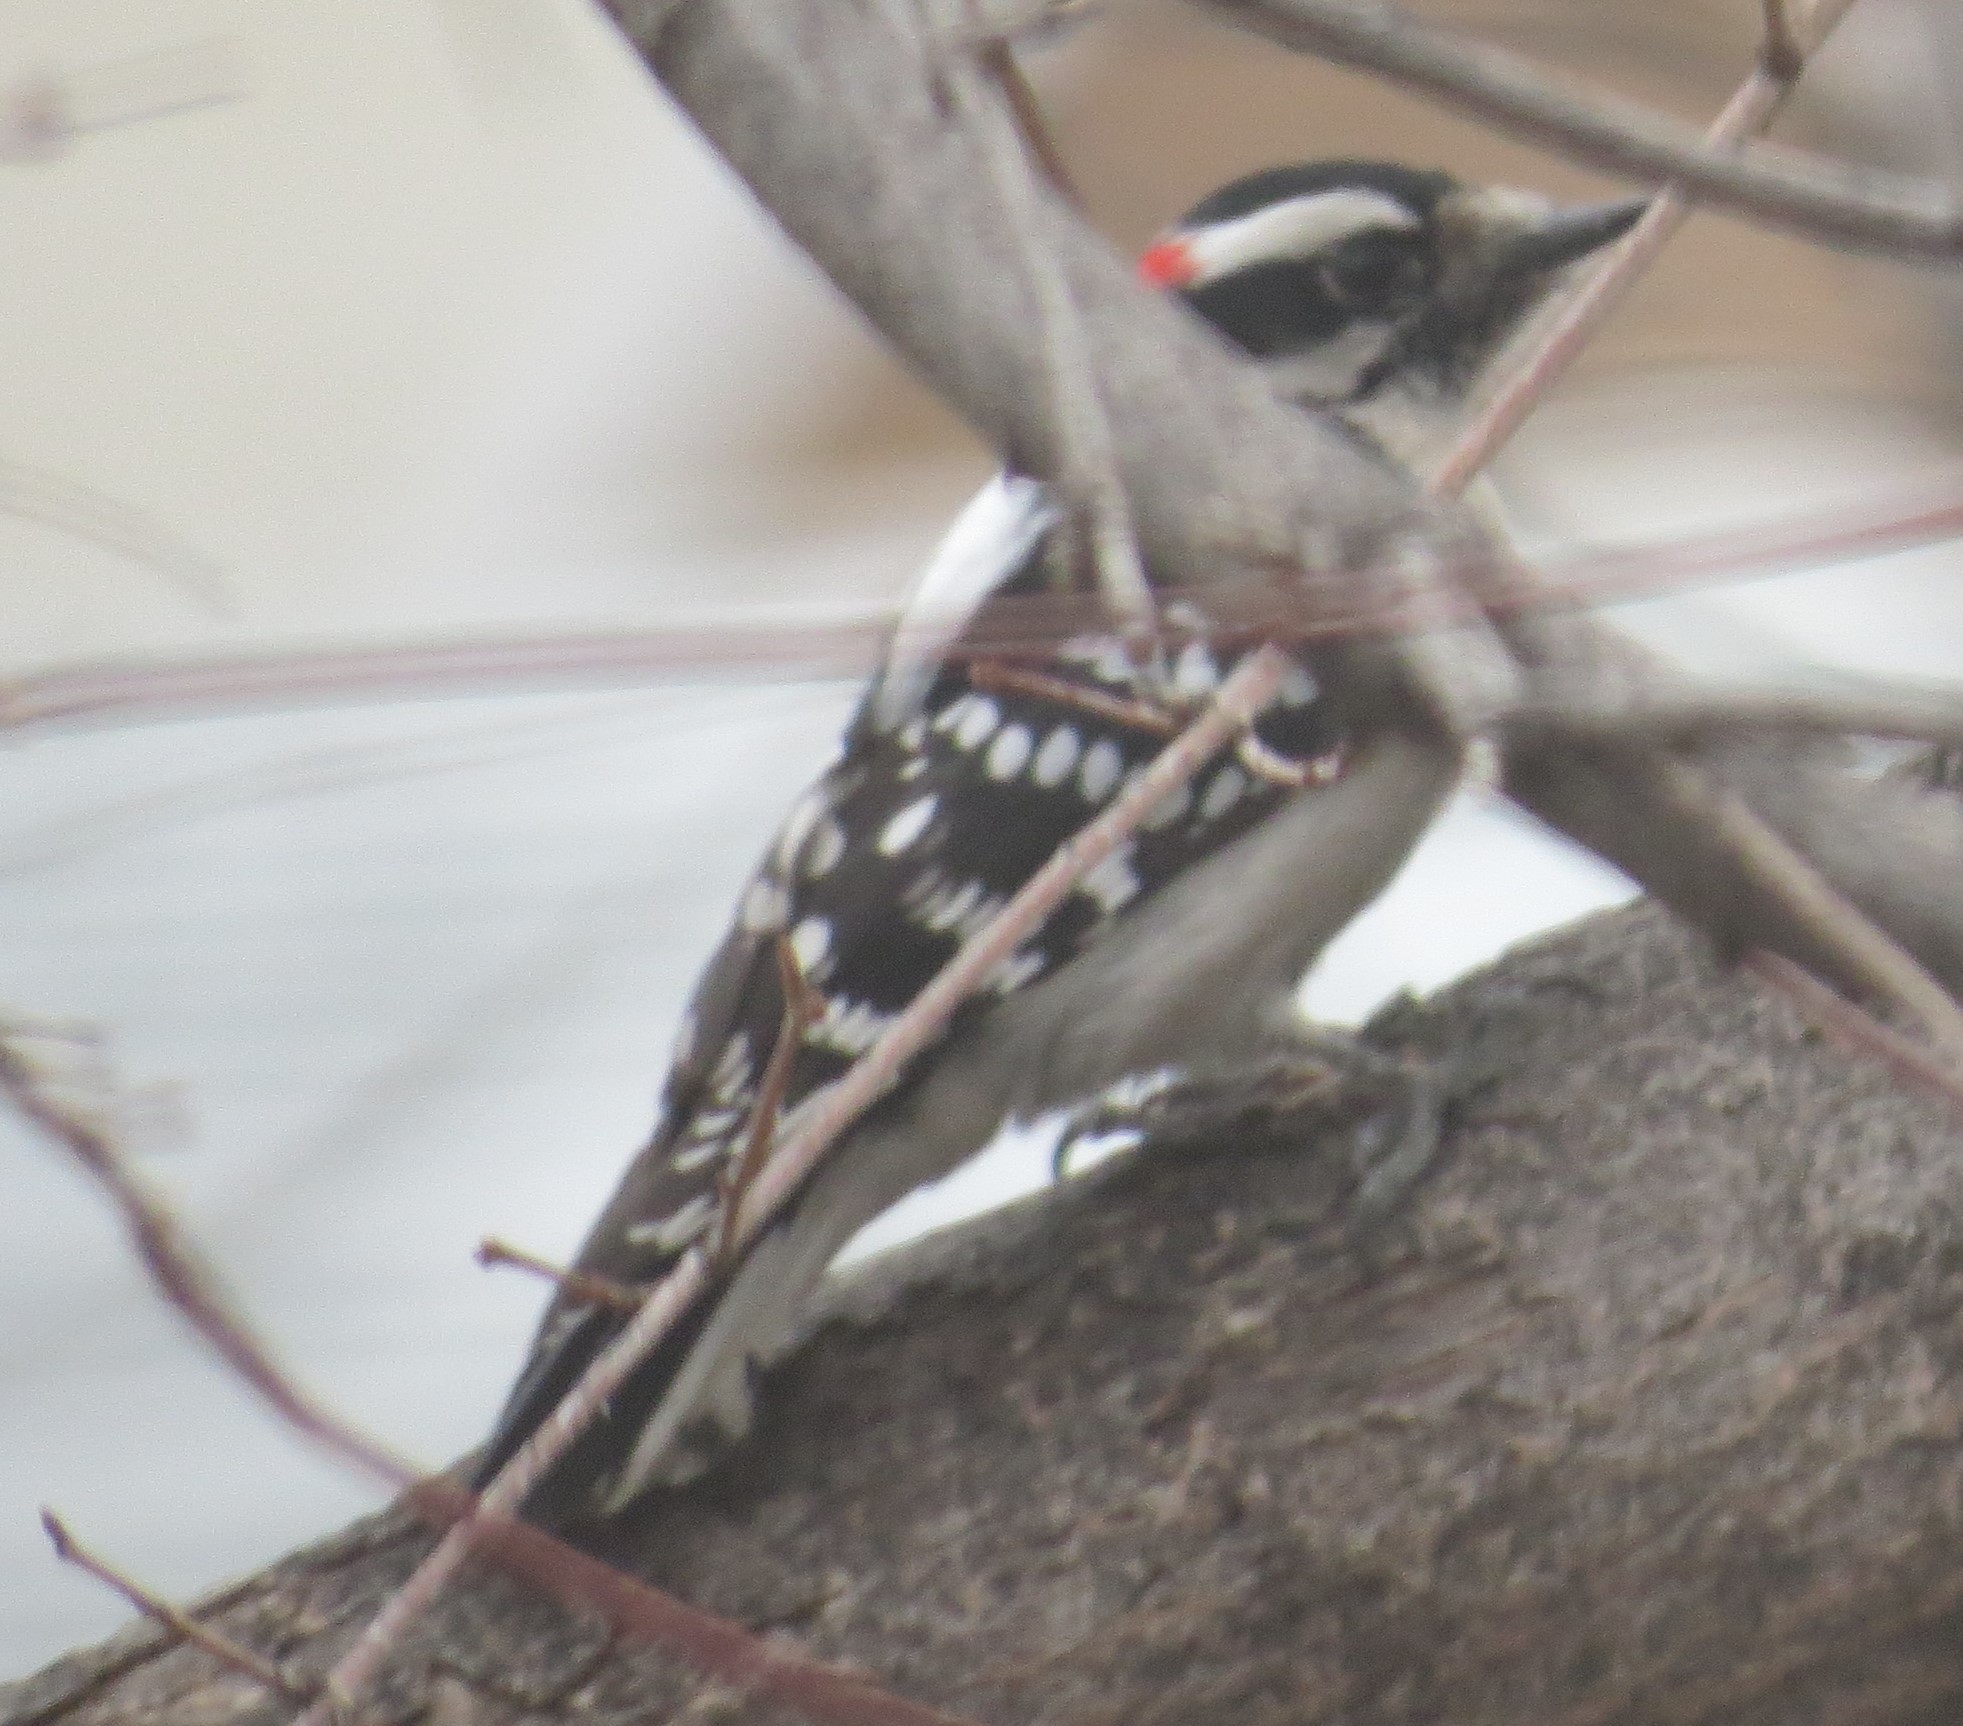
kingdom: Animalia
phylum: Chordata
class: Aves
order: Piciformes
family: Picidae
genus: Dryobates
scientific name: Dryobates pubescens
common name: Downy woodpecker
